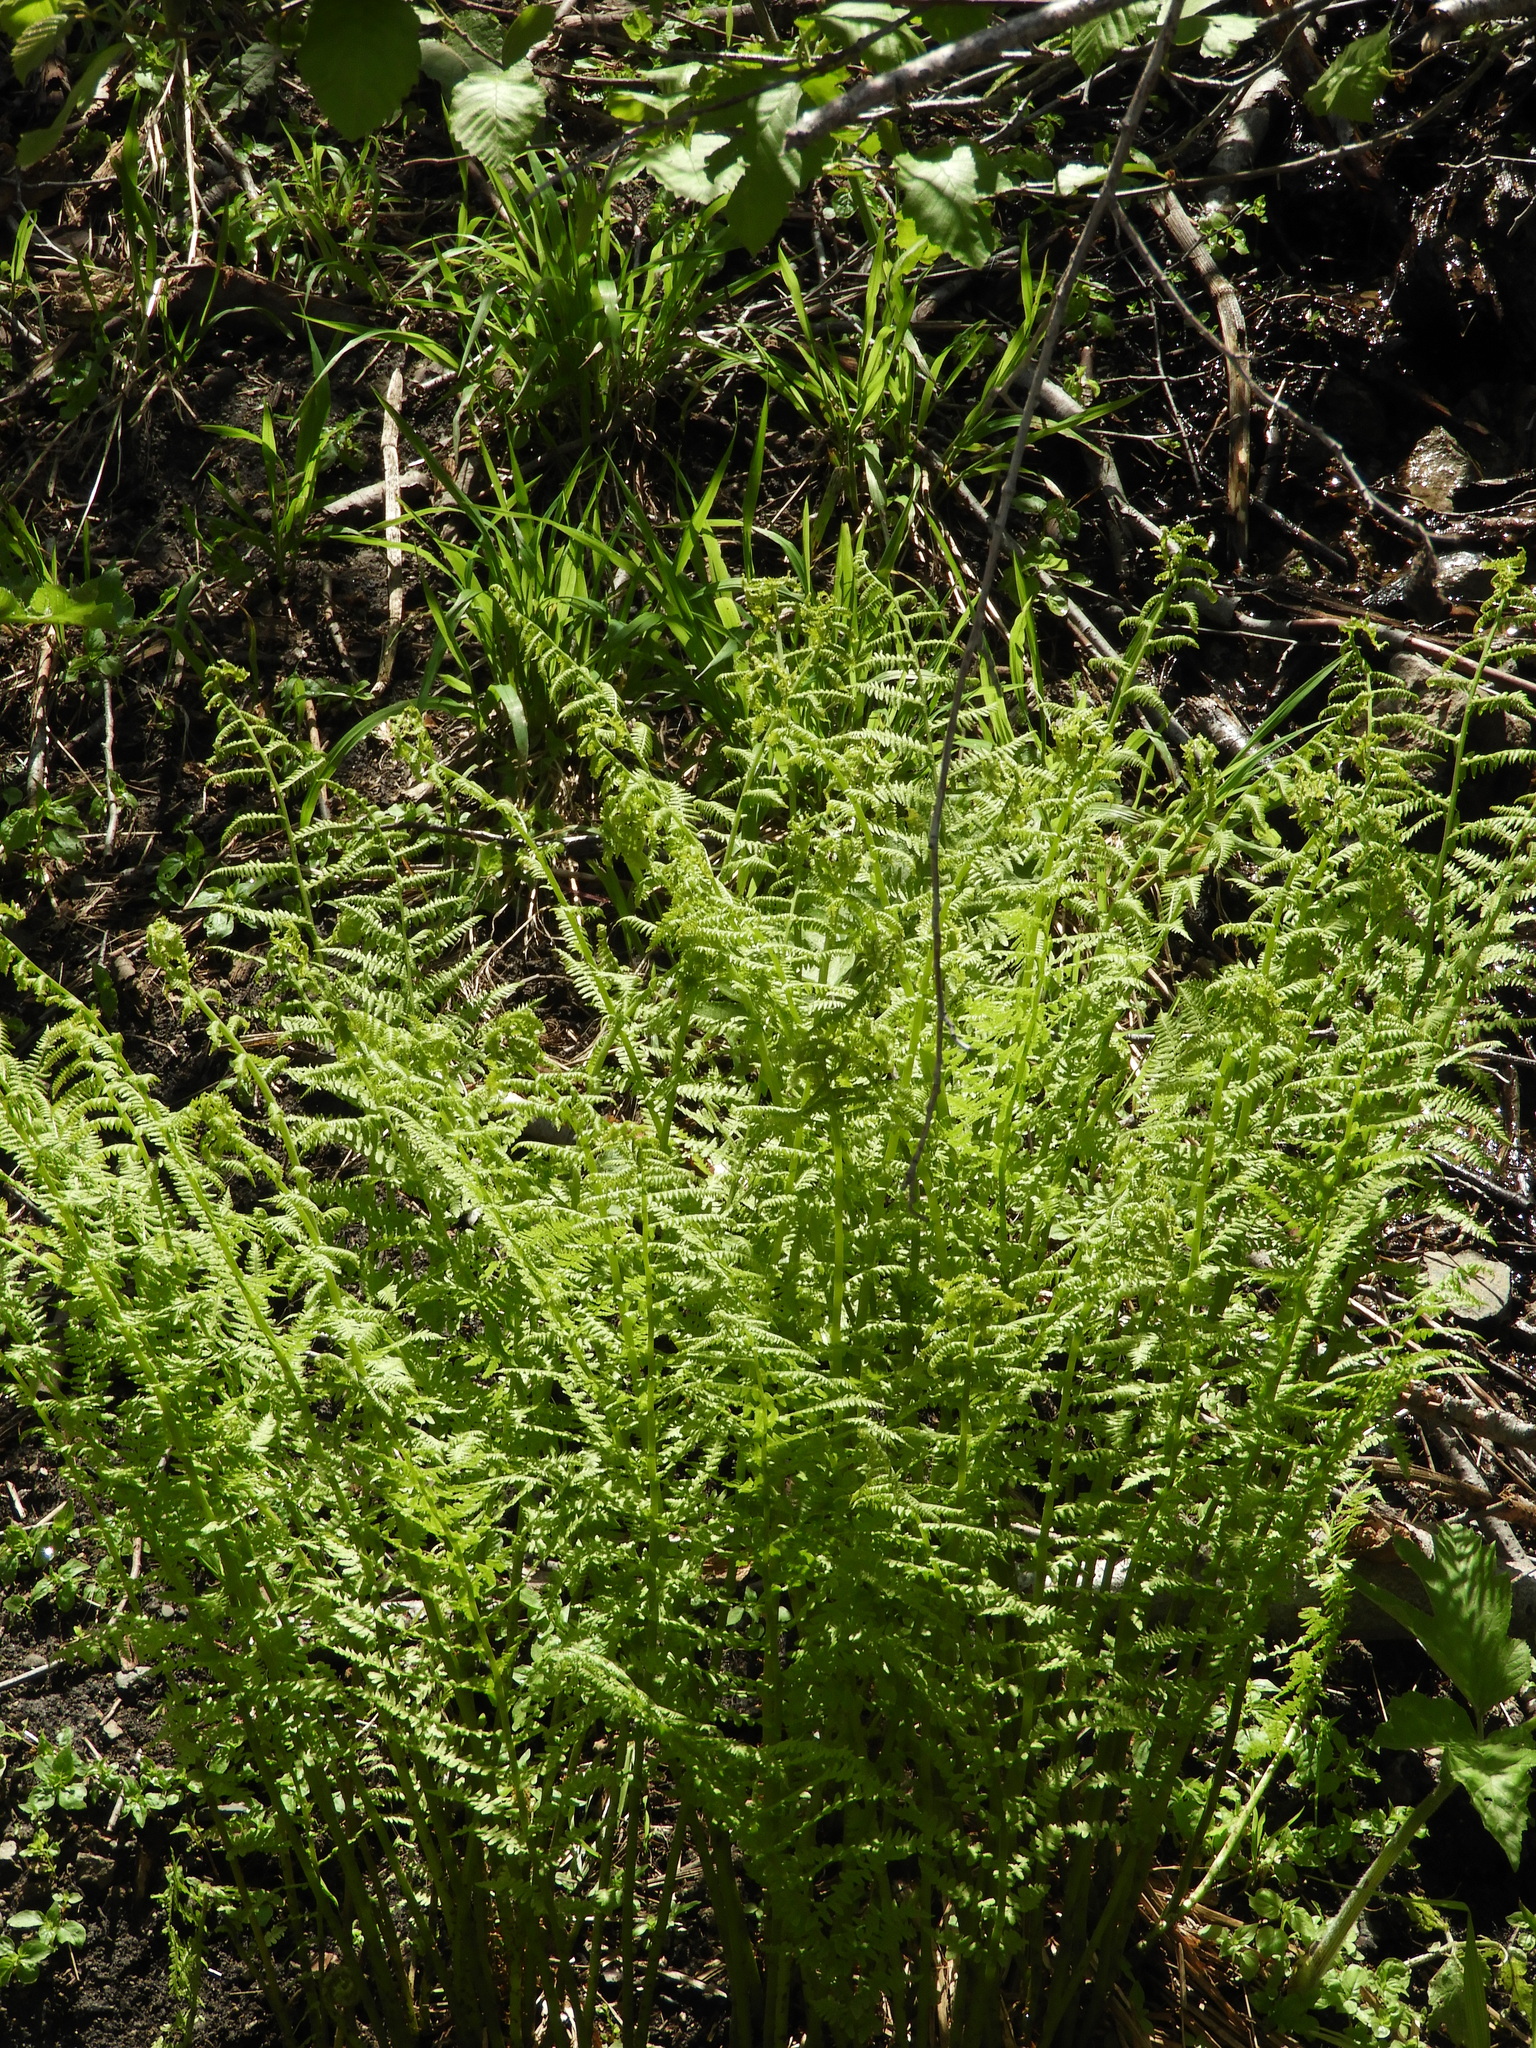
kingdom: Plantae
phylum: Tracheophyta
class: Polypodiopsida
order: Polypodiales
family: Athyriaceae
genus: Athyrium
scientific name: Athyrium filix-femina
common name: Lady fern
